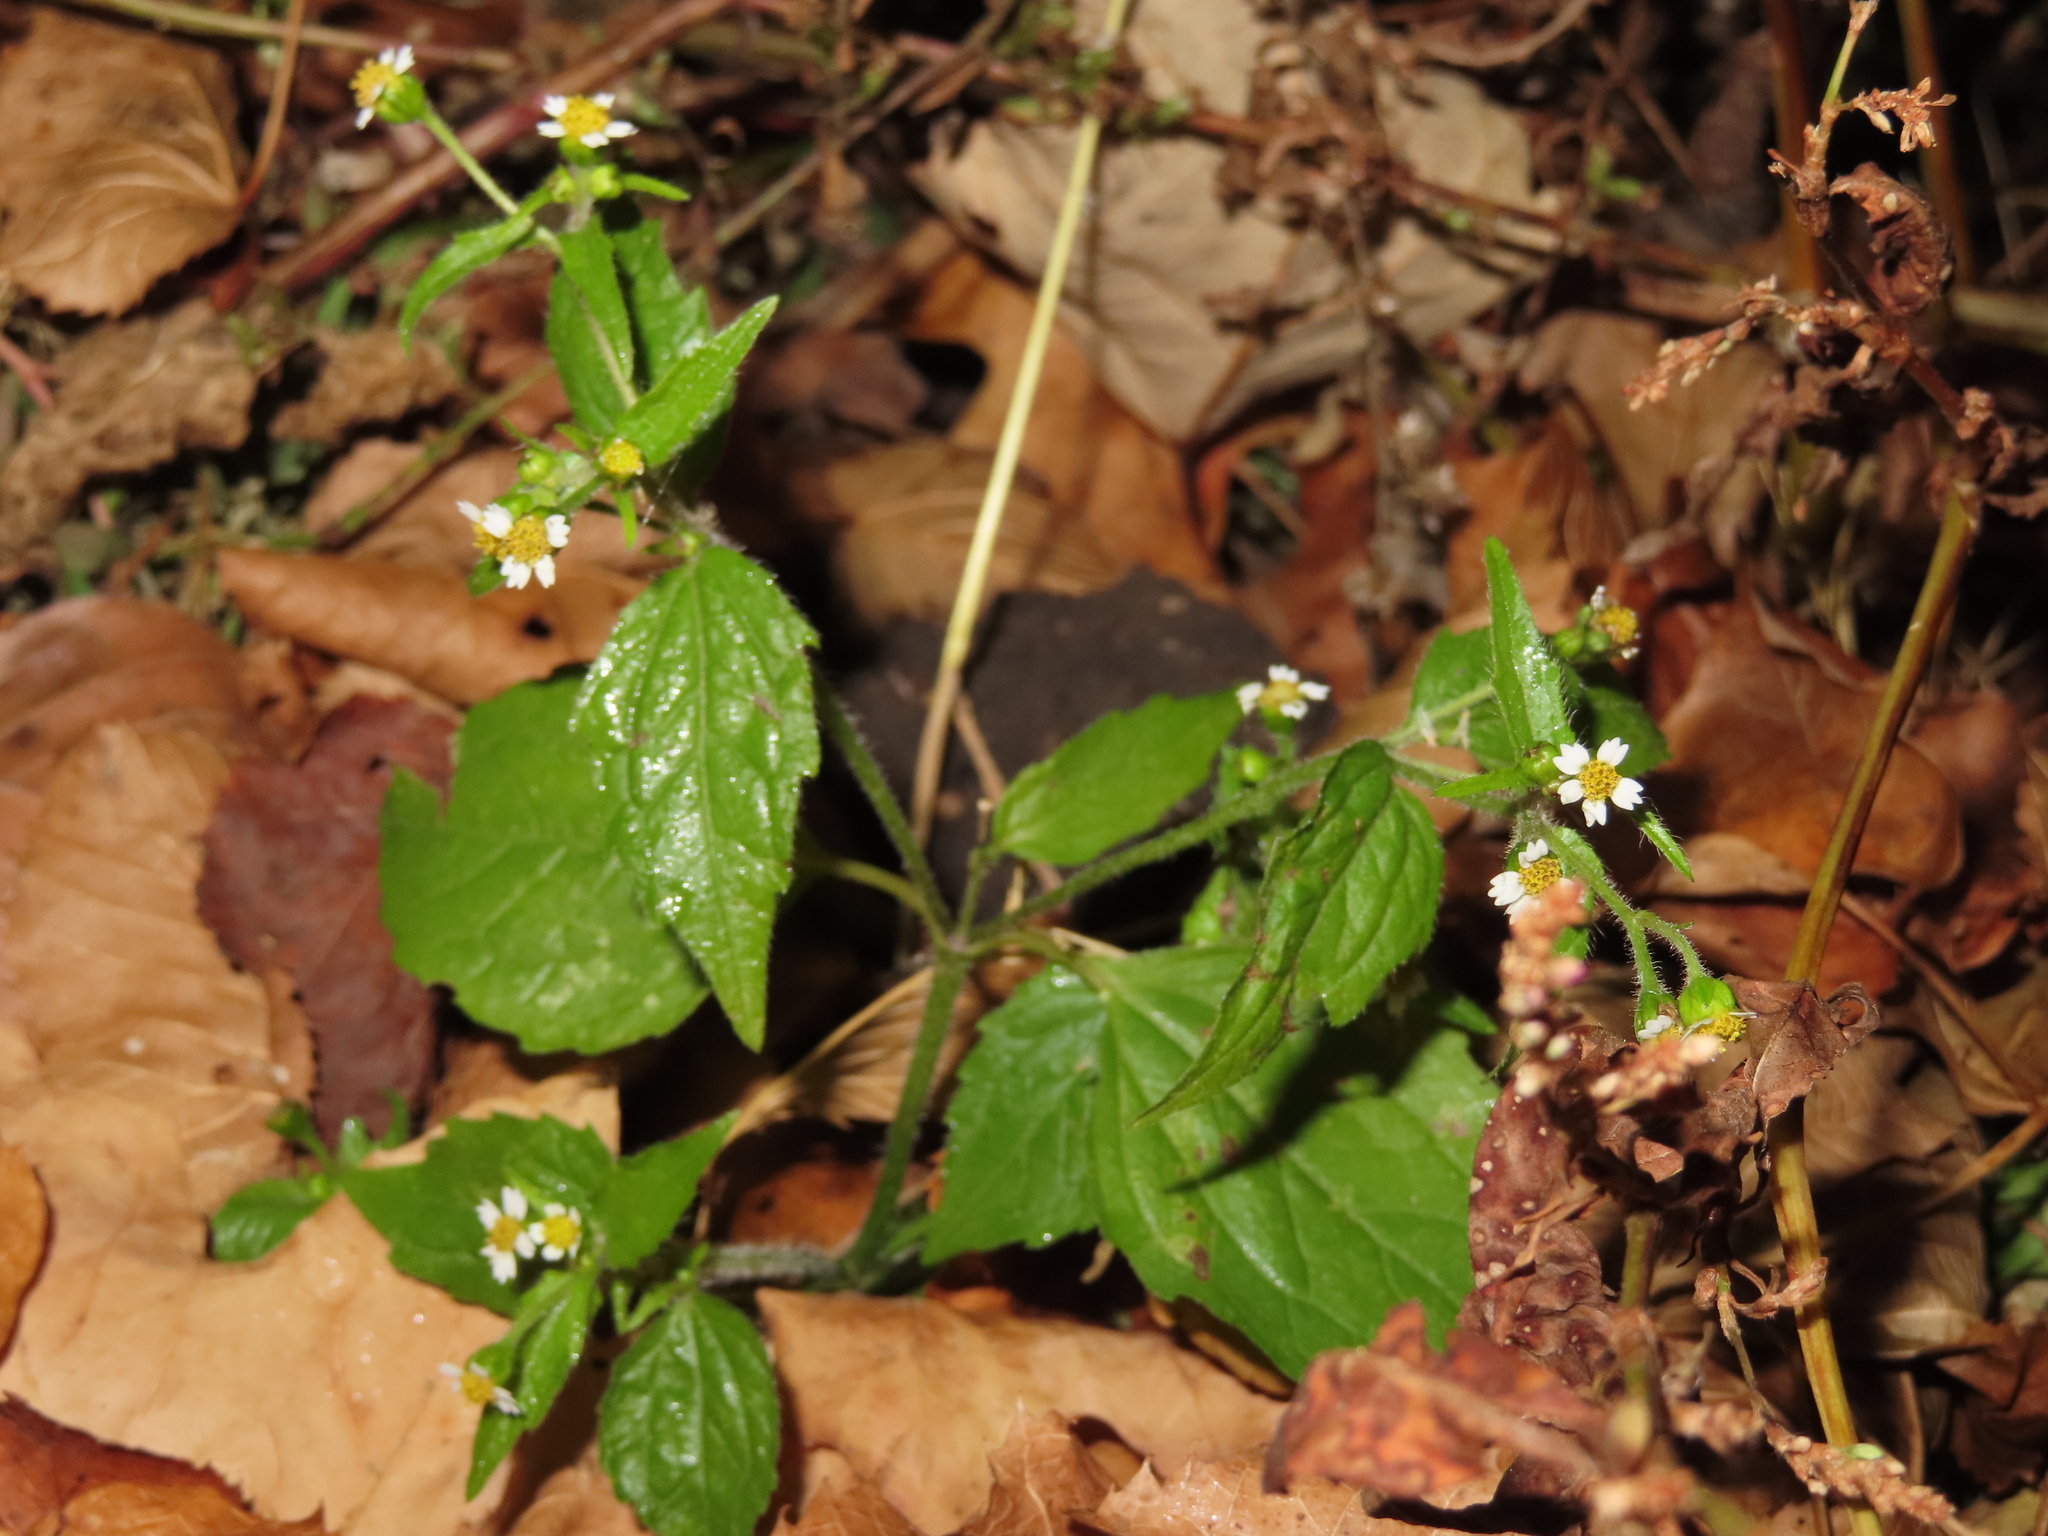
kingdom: Plantae
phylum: Tracheophyta
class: Magnoliopsida
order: Asterales
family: Asteraceae
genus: Galinsoga
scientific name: Galinsoga quadriradiata
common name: Shaggy soldier
